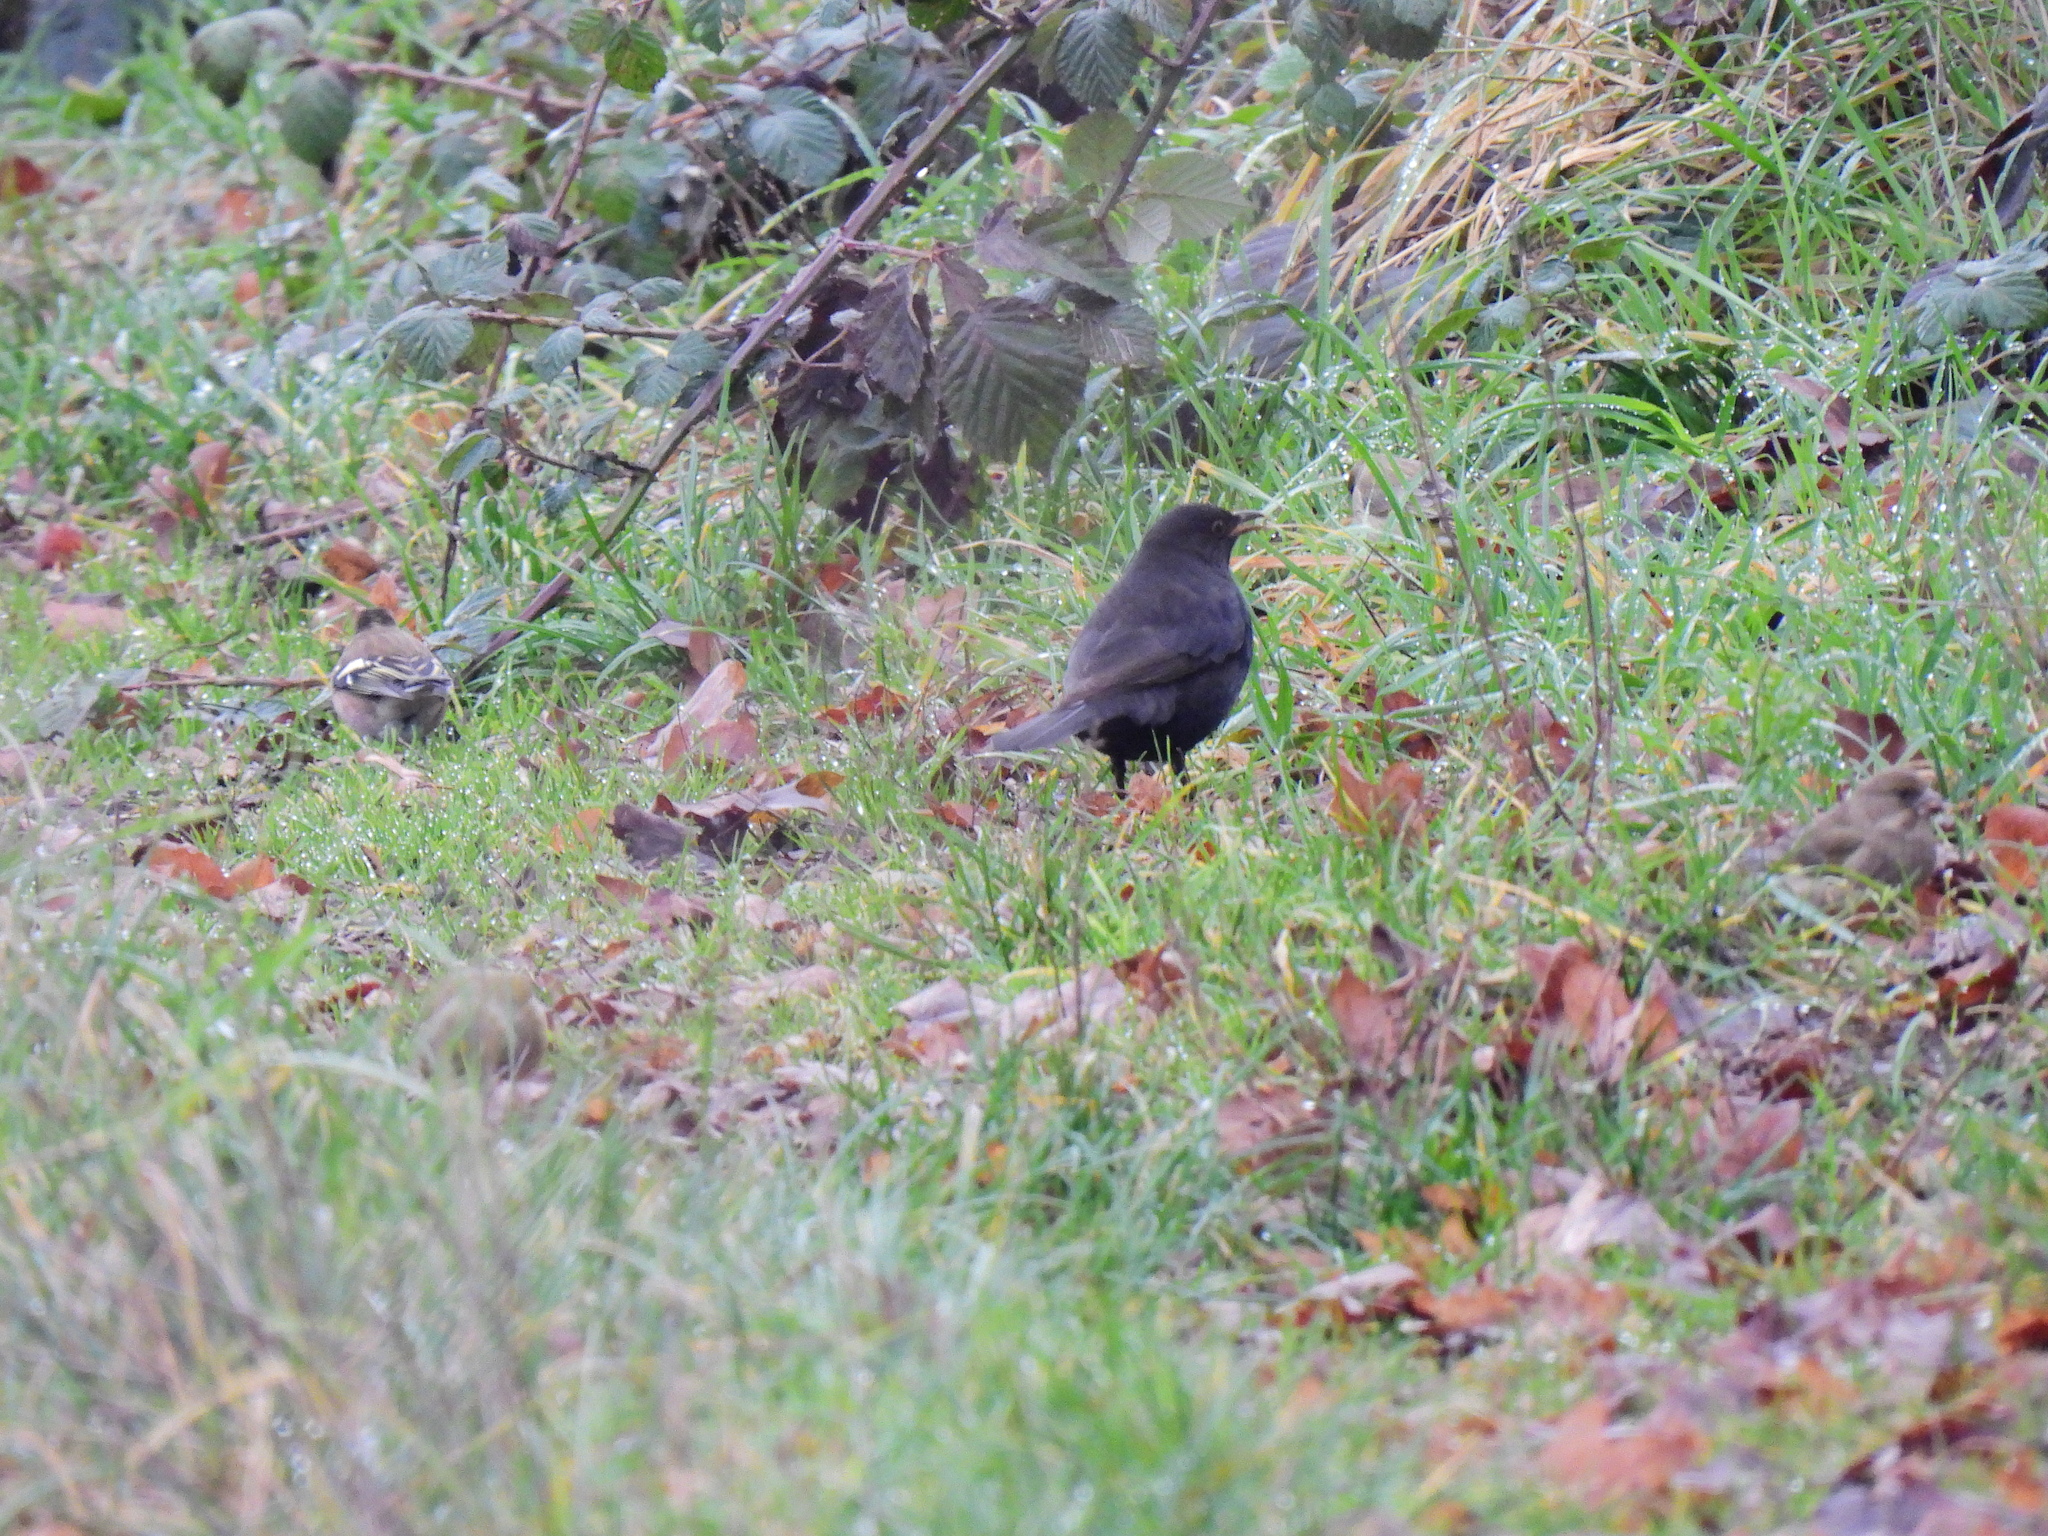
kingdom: Animalia
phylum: Chordata
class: Aves
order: Passeriformes
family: Turdidae
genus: Turdus
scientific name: Turdus merula
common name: Common blackbird
